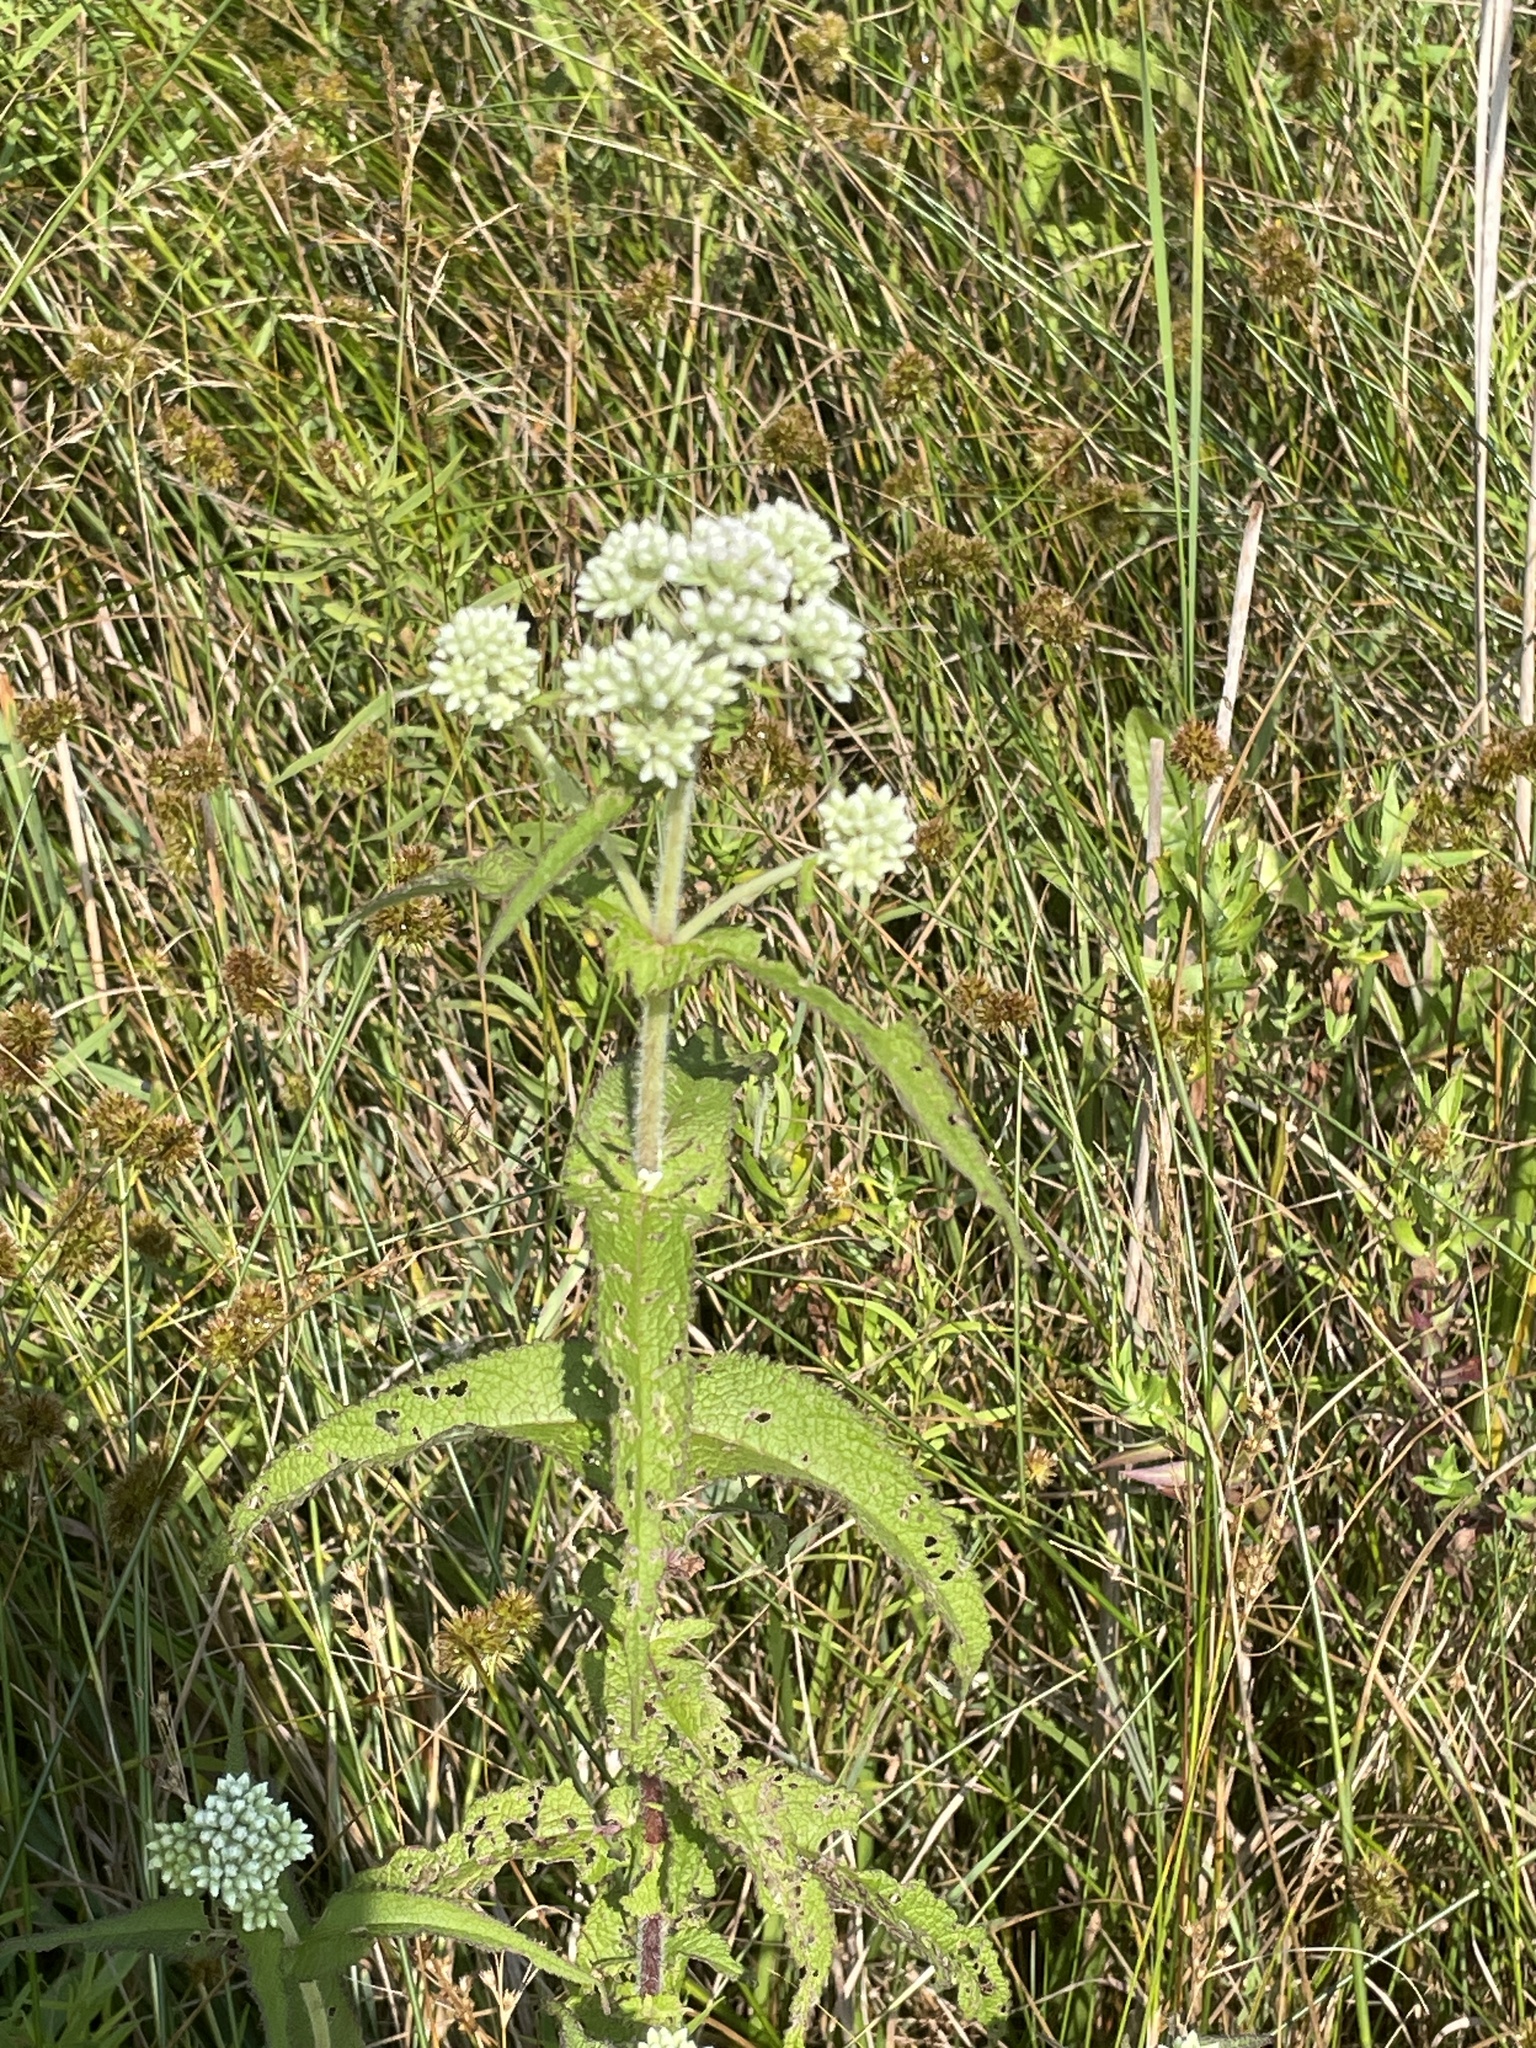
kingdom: Plantae
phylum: Tracheophyta
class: Magnoliopsida
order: Asterales
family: Asteraceae
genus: Eupatorium
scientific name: Eupatorium perfoliatum
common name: Boneset
